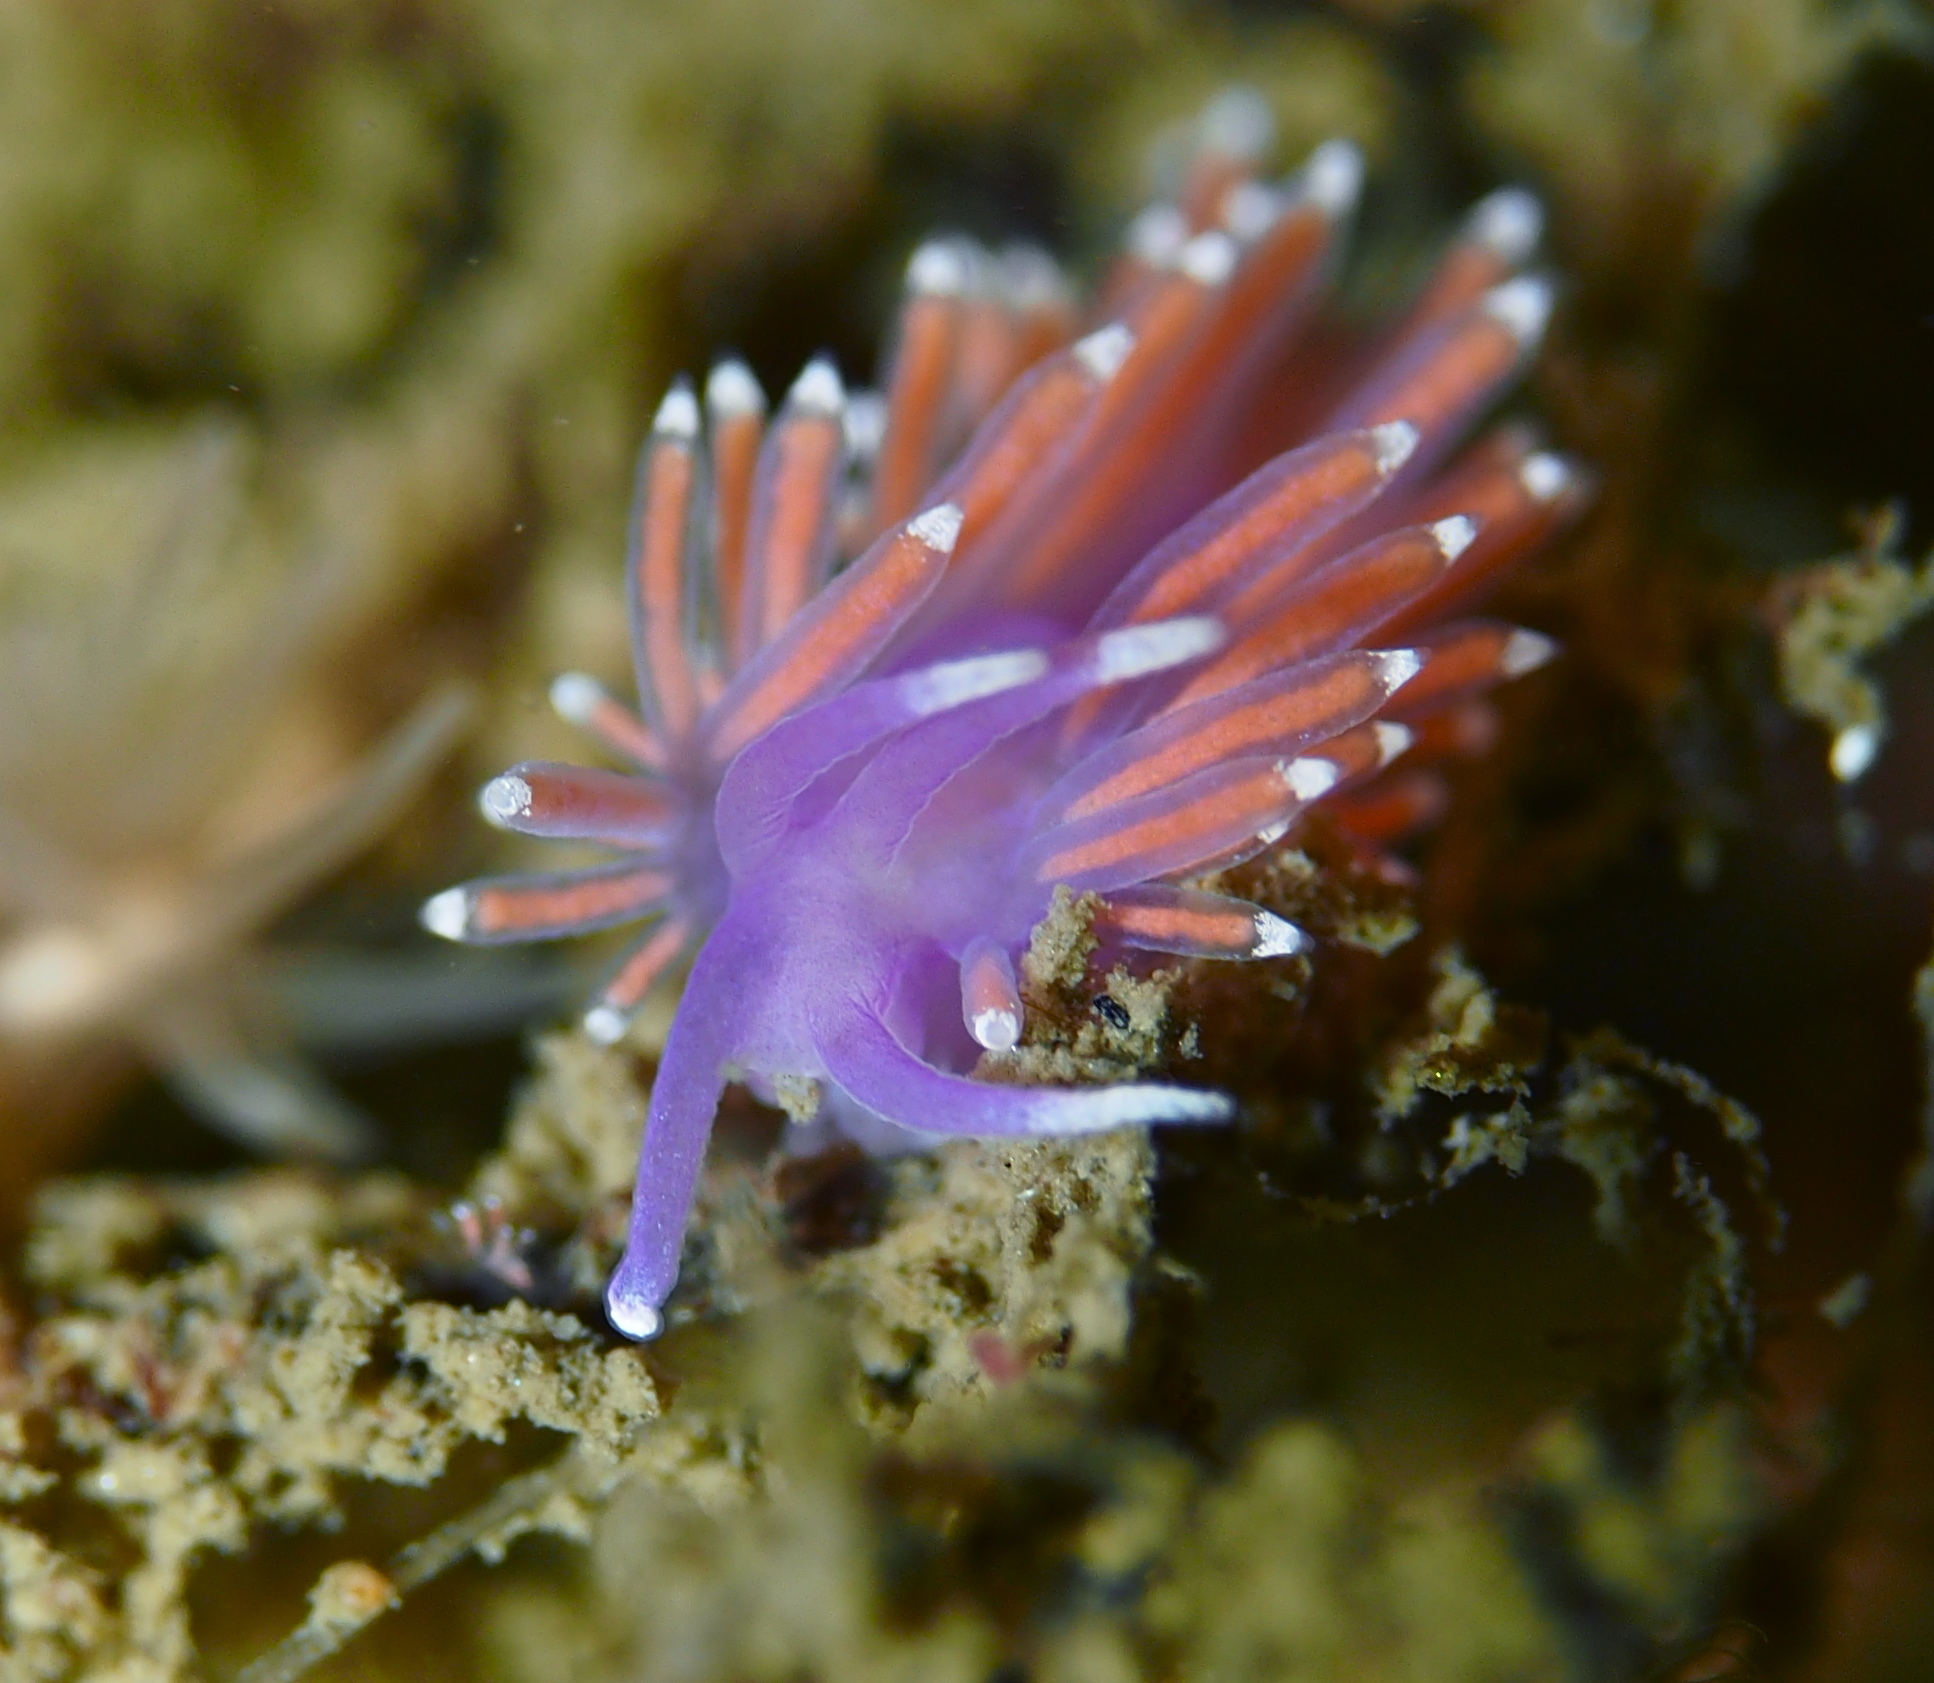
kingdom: Animalia
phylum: Mollusca
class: Gastropoda
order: Nudibranchia
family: Flabellinidae
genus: Edmundsella
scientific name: Edmundsella pedata
